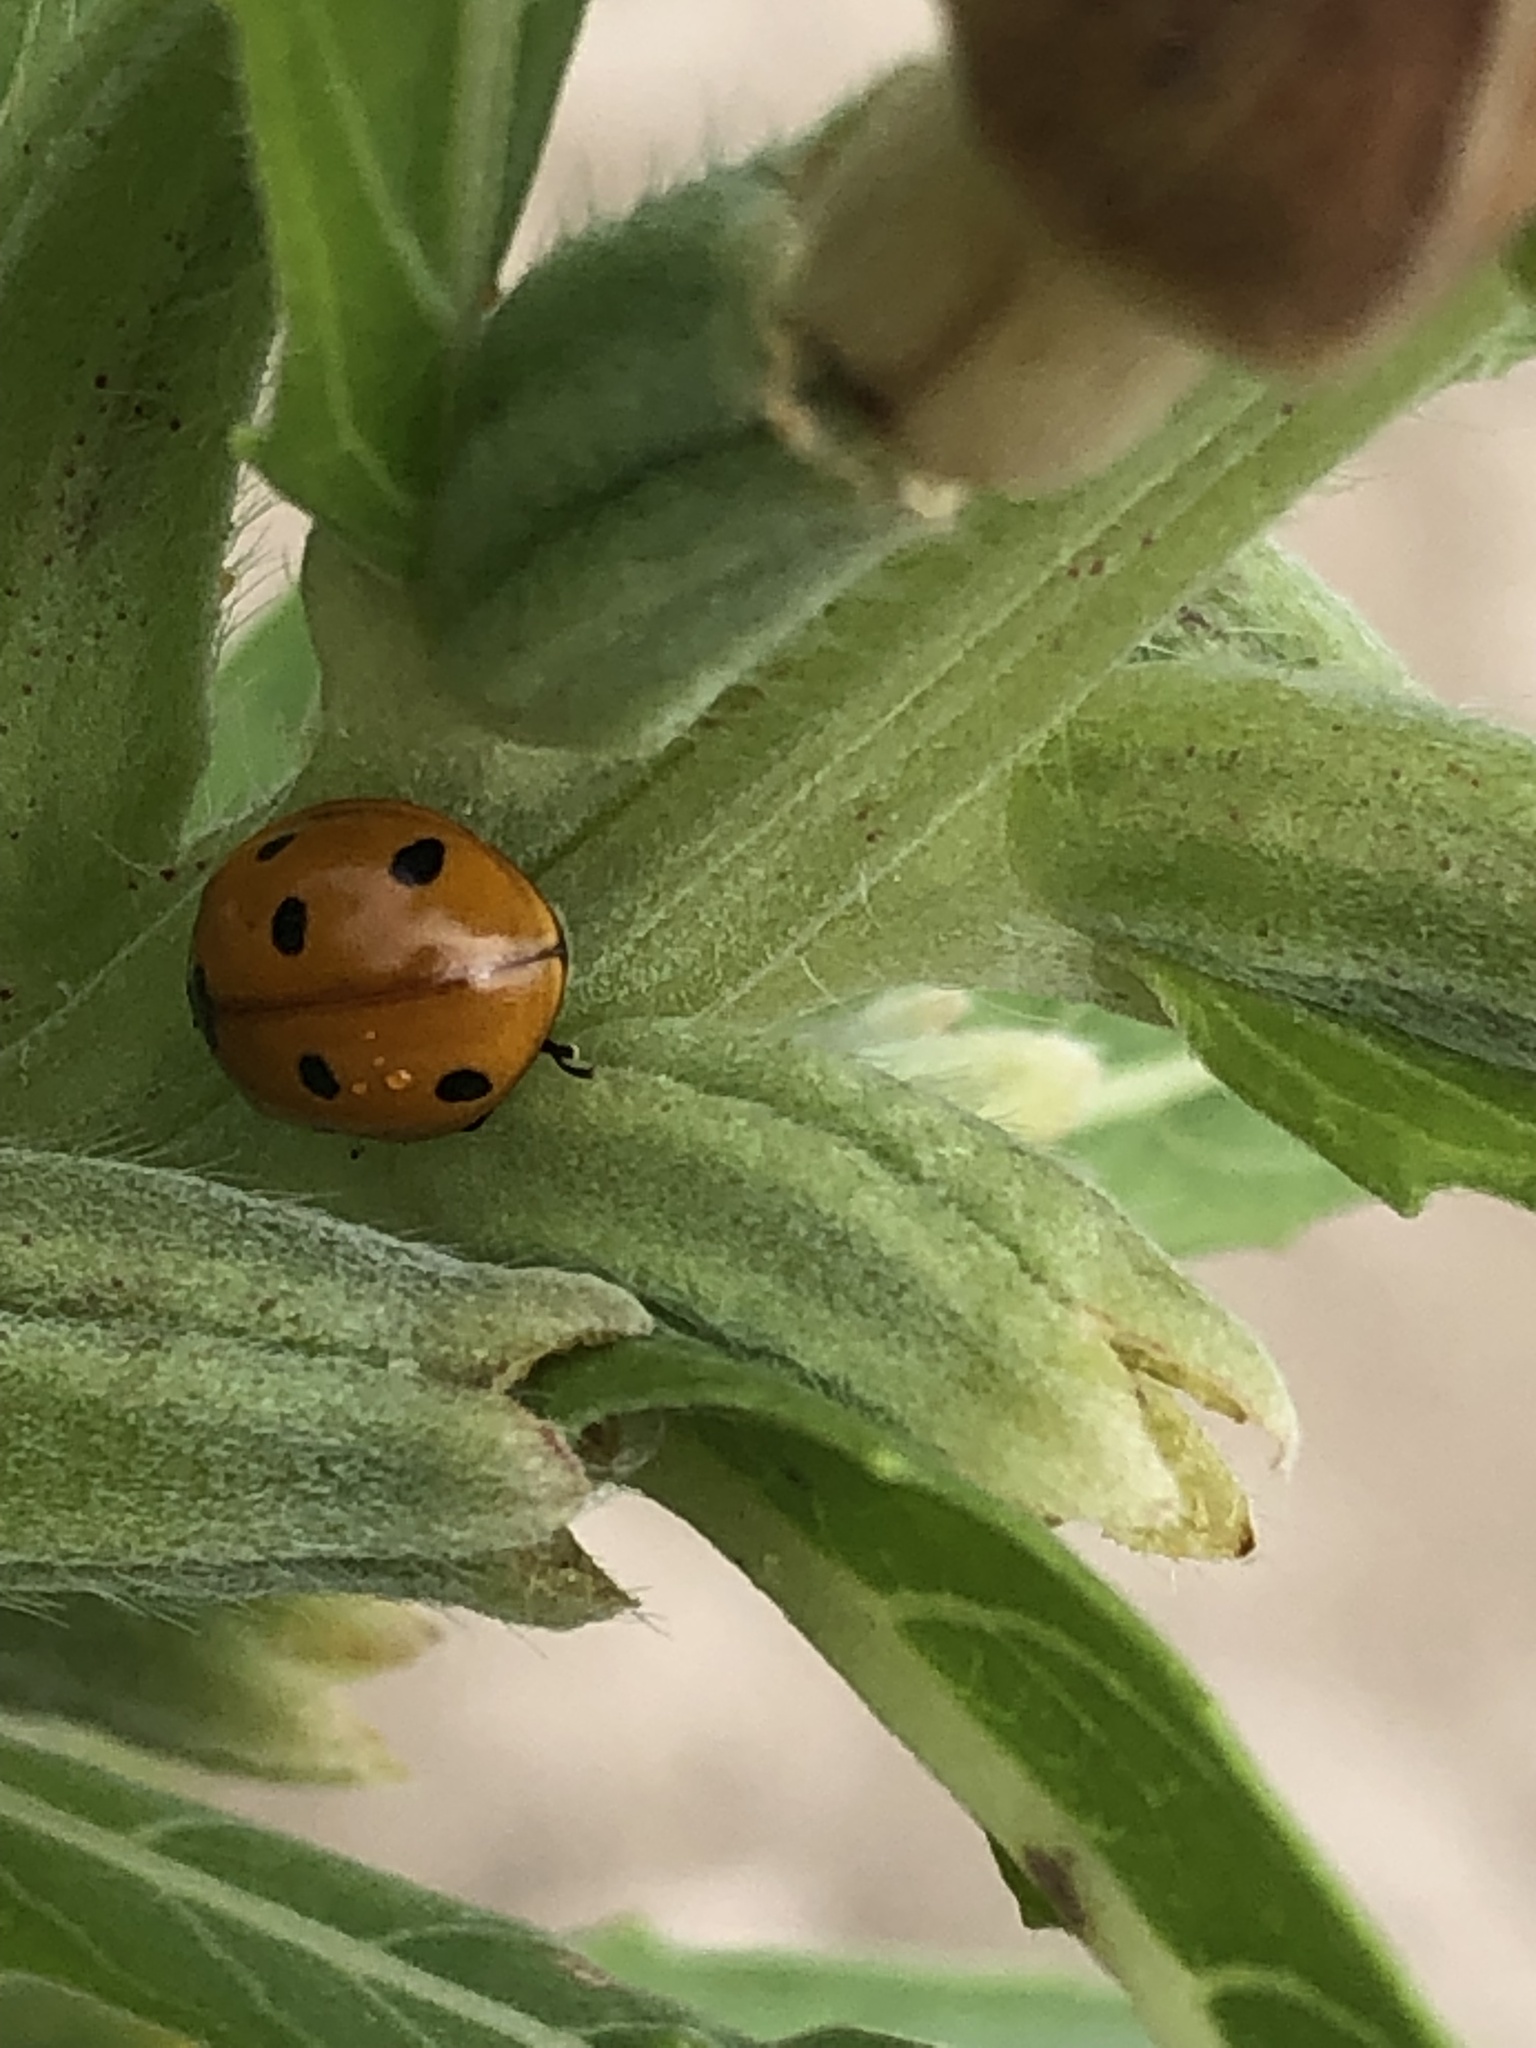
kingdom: Animalia
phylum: Arthropoda
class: Insecta
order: Coleoptera
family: Coccinellidae
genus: Coccinella
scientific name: Coccinella septempunctata
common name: Sevenspotted lady beetle
